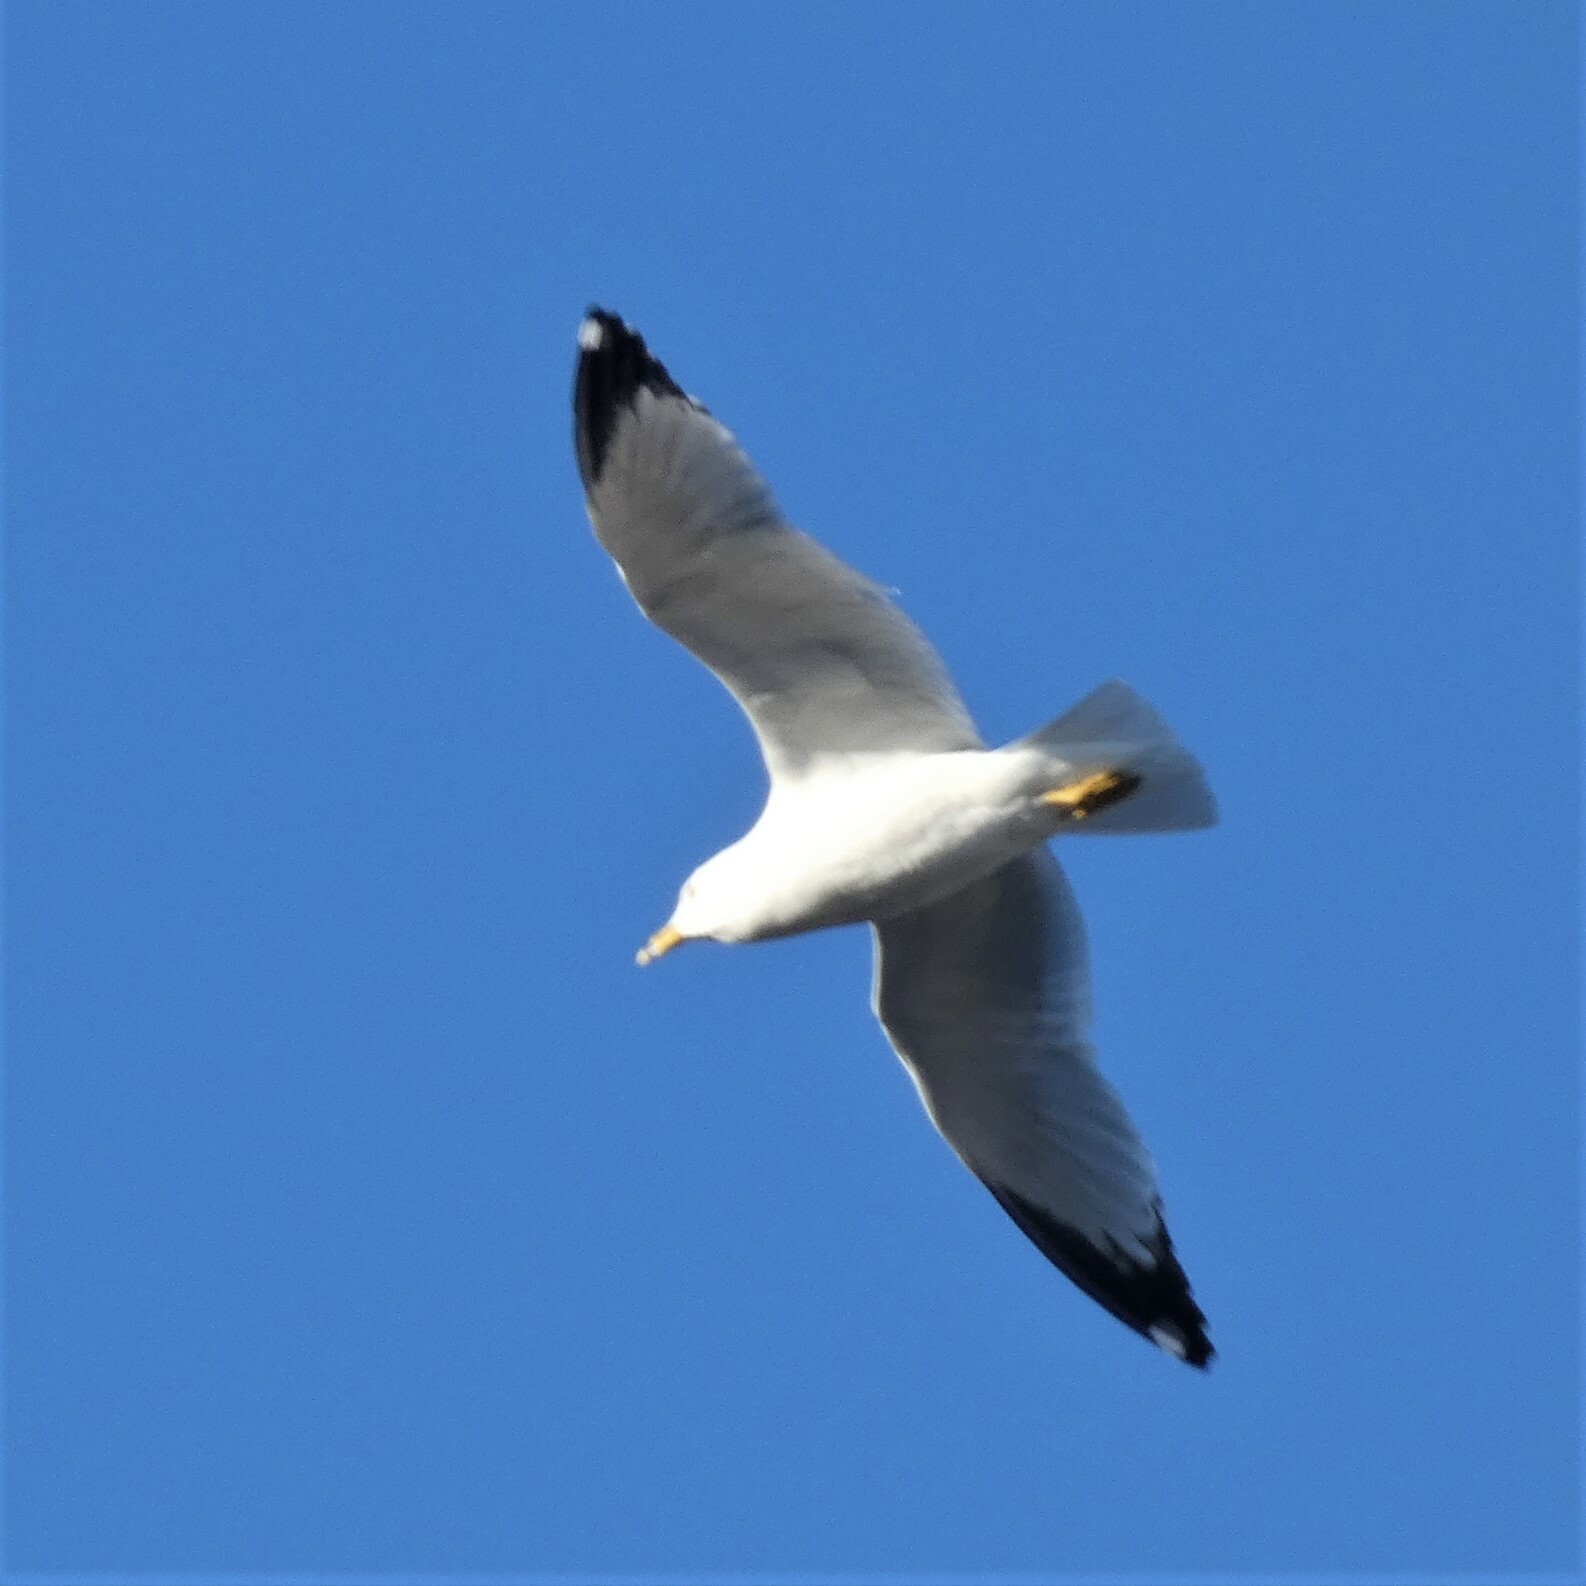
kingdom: Animalia
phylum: Chordata
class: Aves
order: Charadriiformes
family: Laridae
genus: Larus
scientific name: Larus delawarensis
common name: Ring-billed gull
